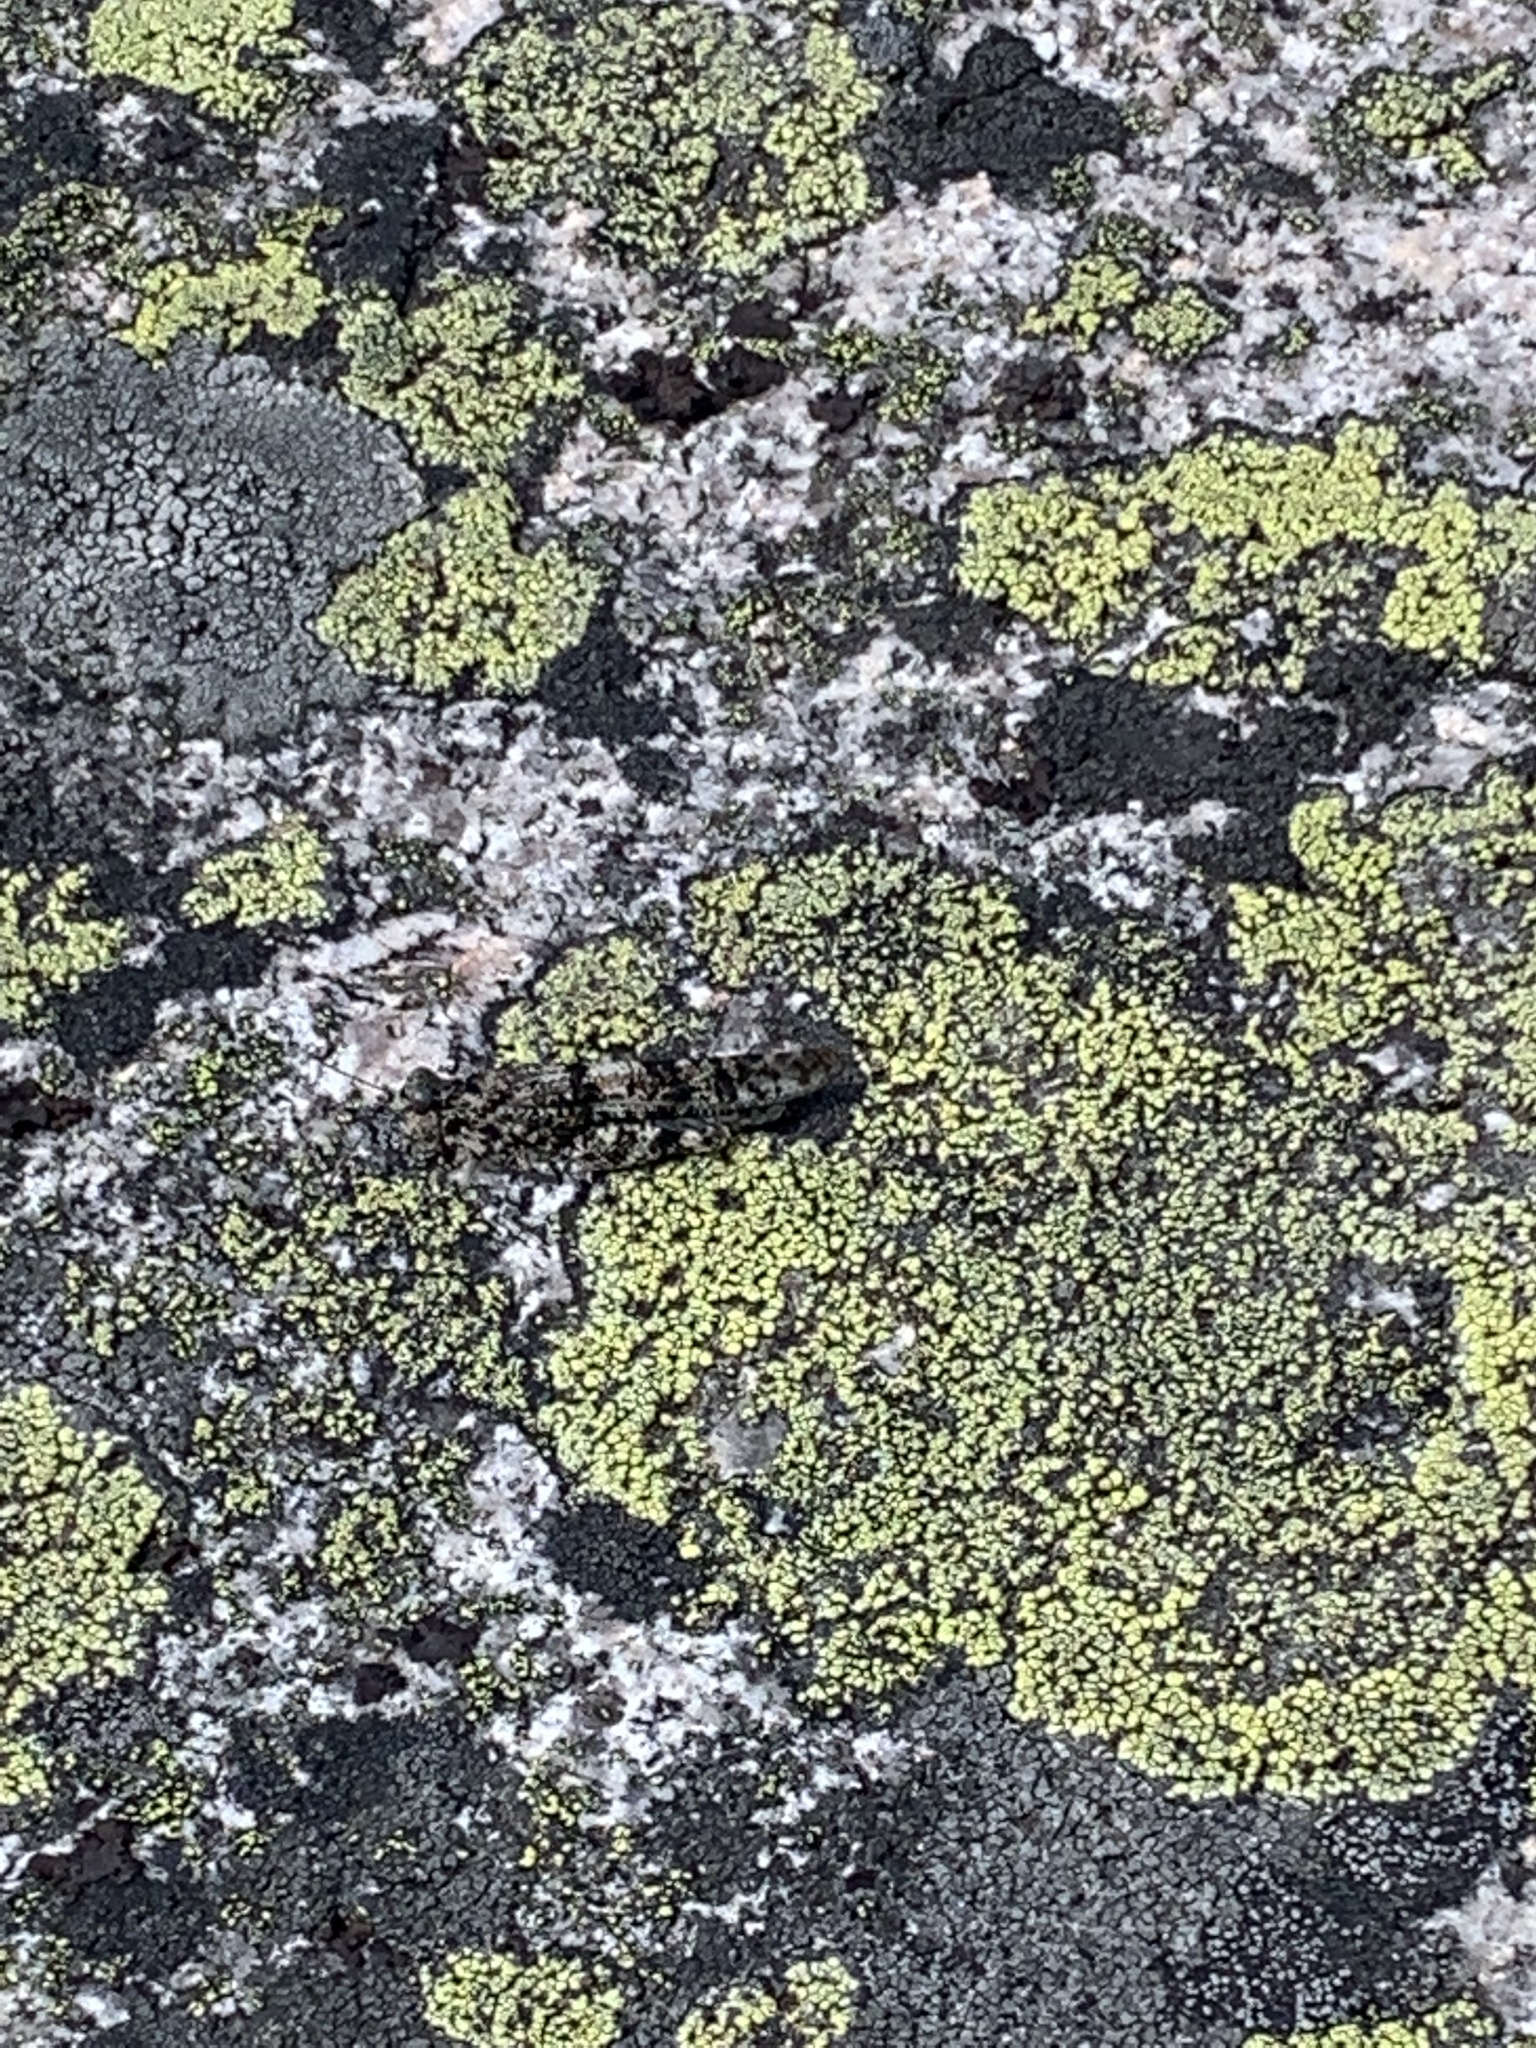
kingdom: Animalia
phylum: Arthropoda
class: Insecta
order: Orthoptera
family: Acrididae
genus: Sphingonotus
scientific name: Sphingonotus caerulans
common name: Blue-winged locust
